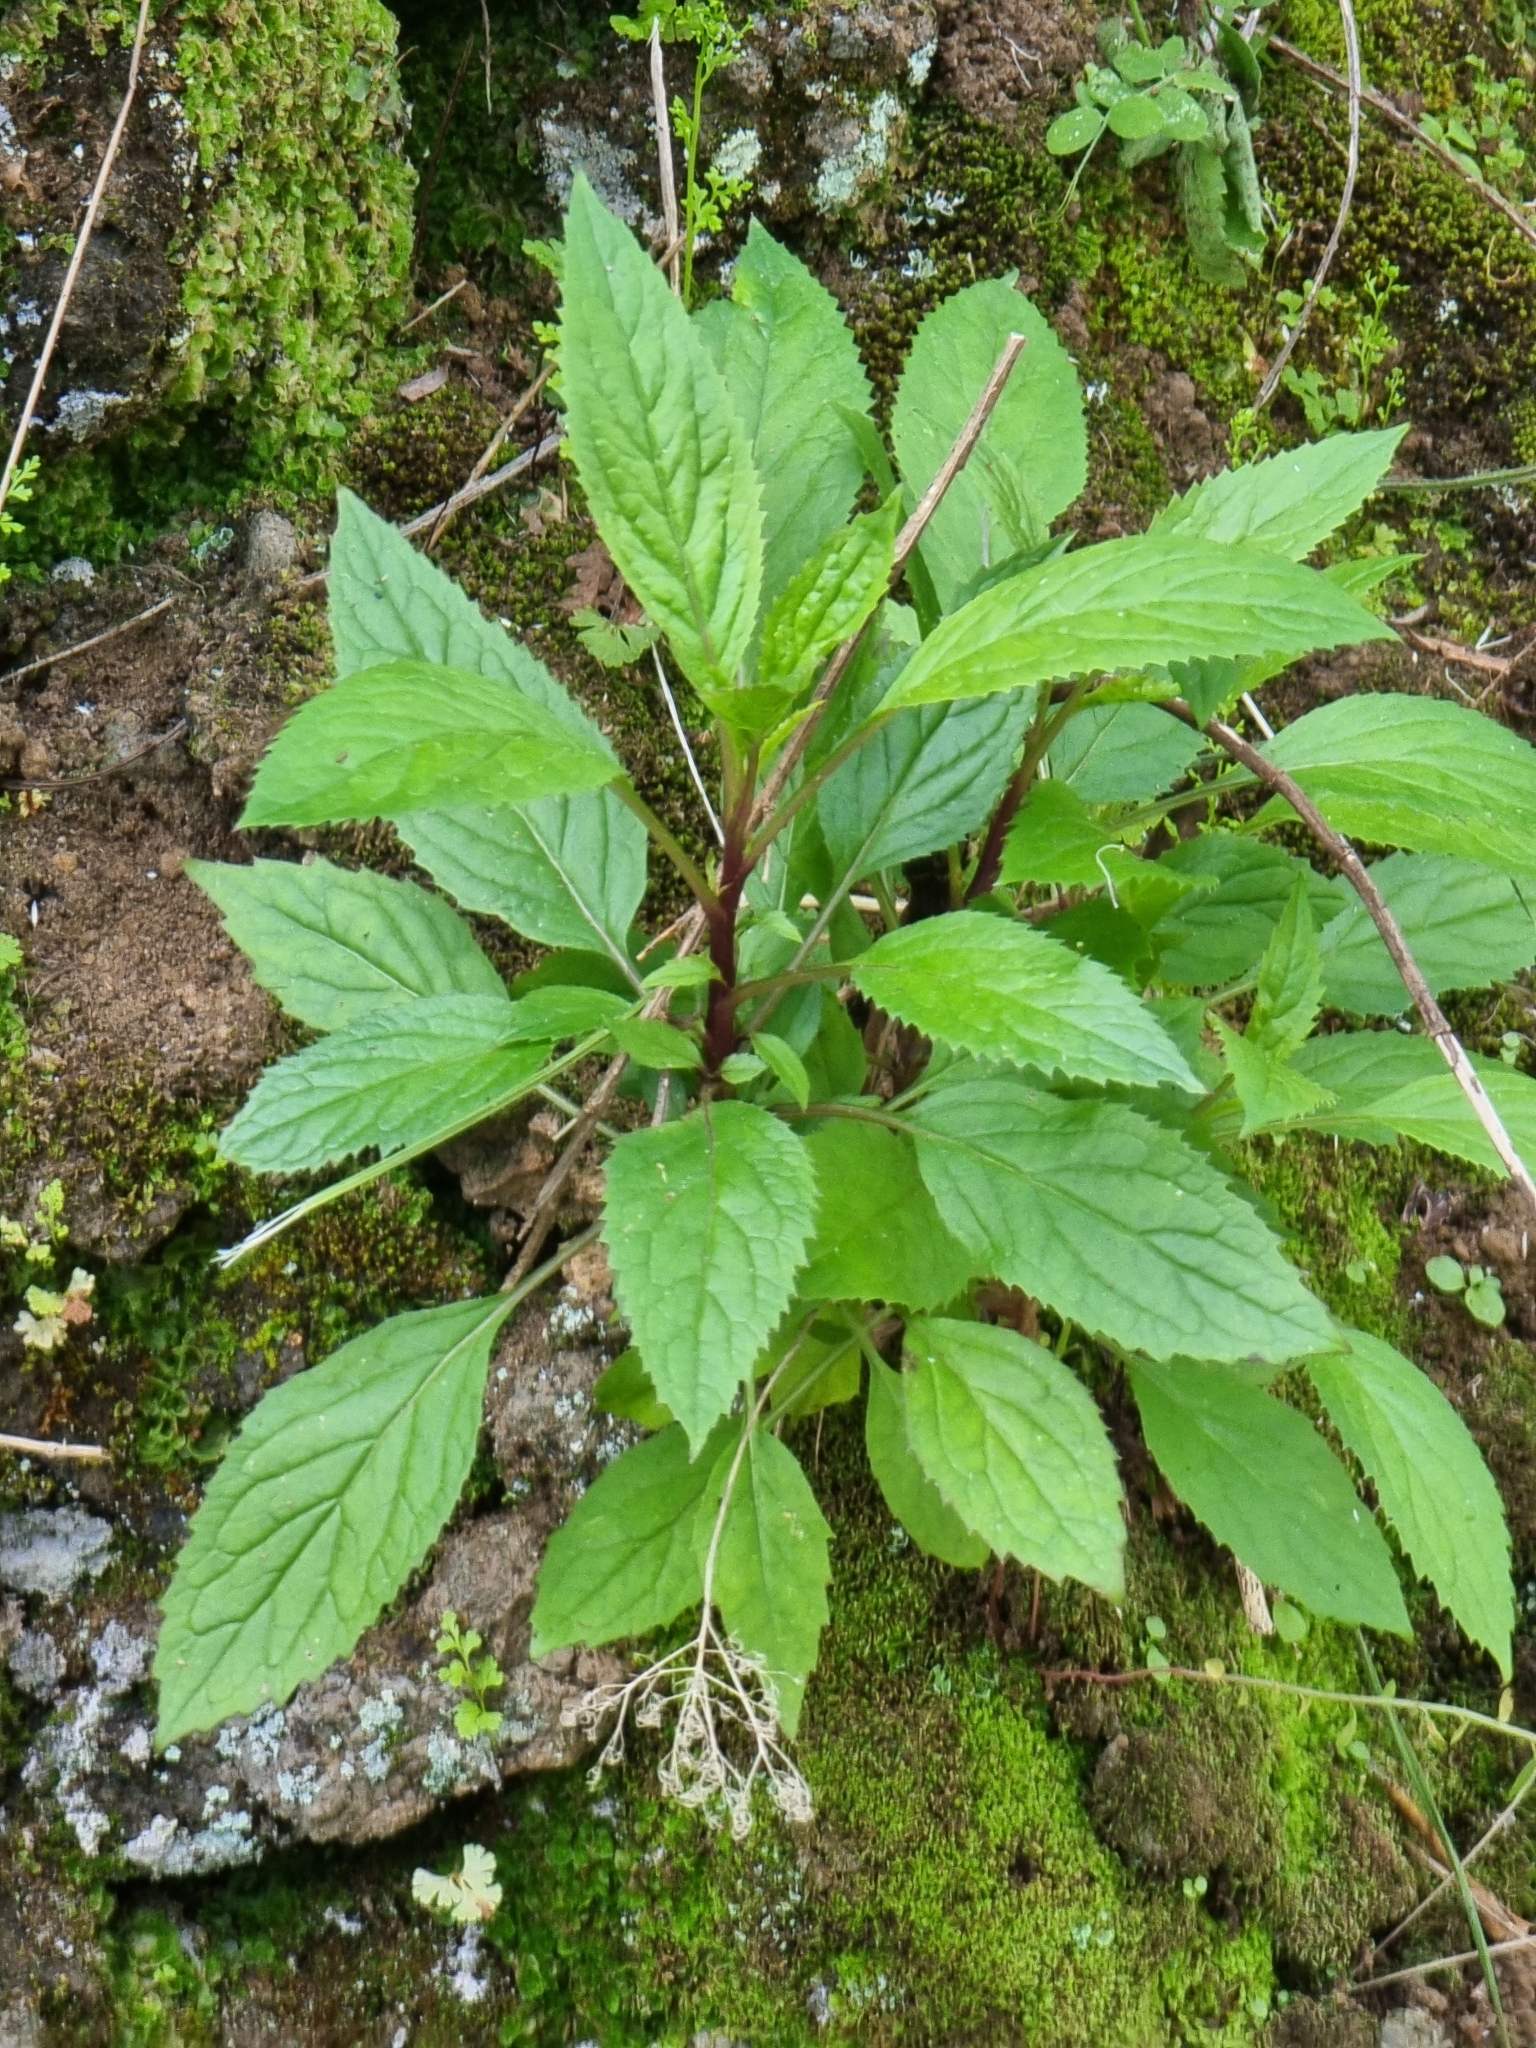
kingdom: Plantae
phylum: Tracheophyta
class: Magnoliopsida
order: Asterales
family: Campanulaceae
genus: Trachelium
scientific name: Trachelium caeruleum
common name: Throatwort
